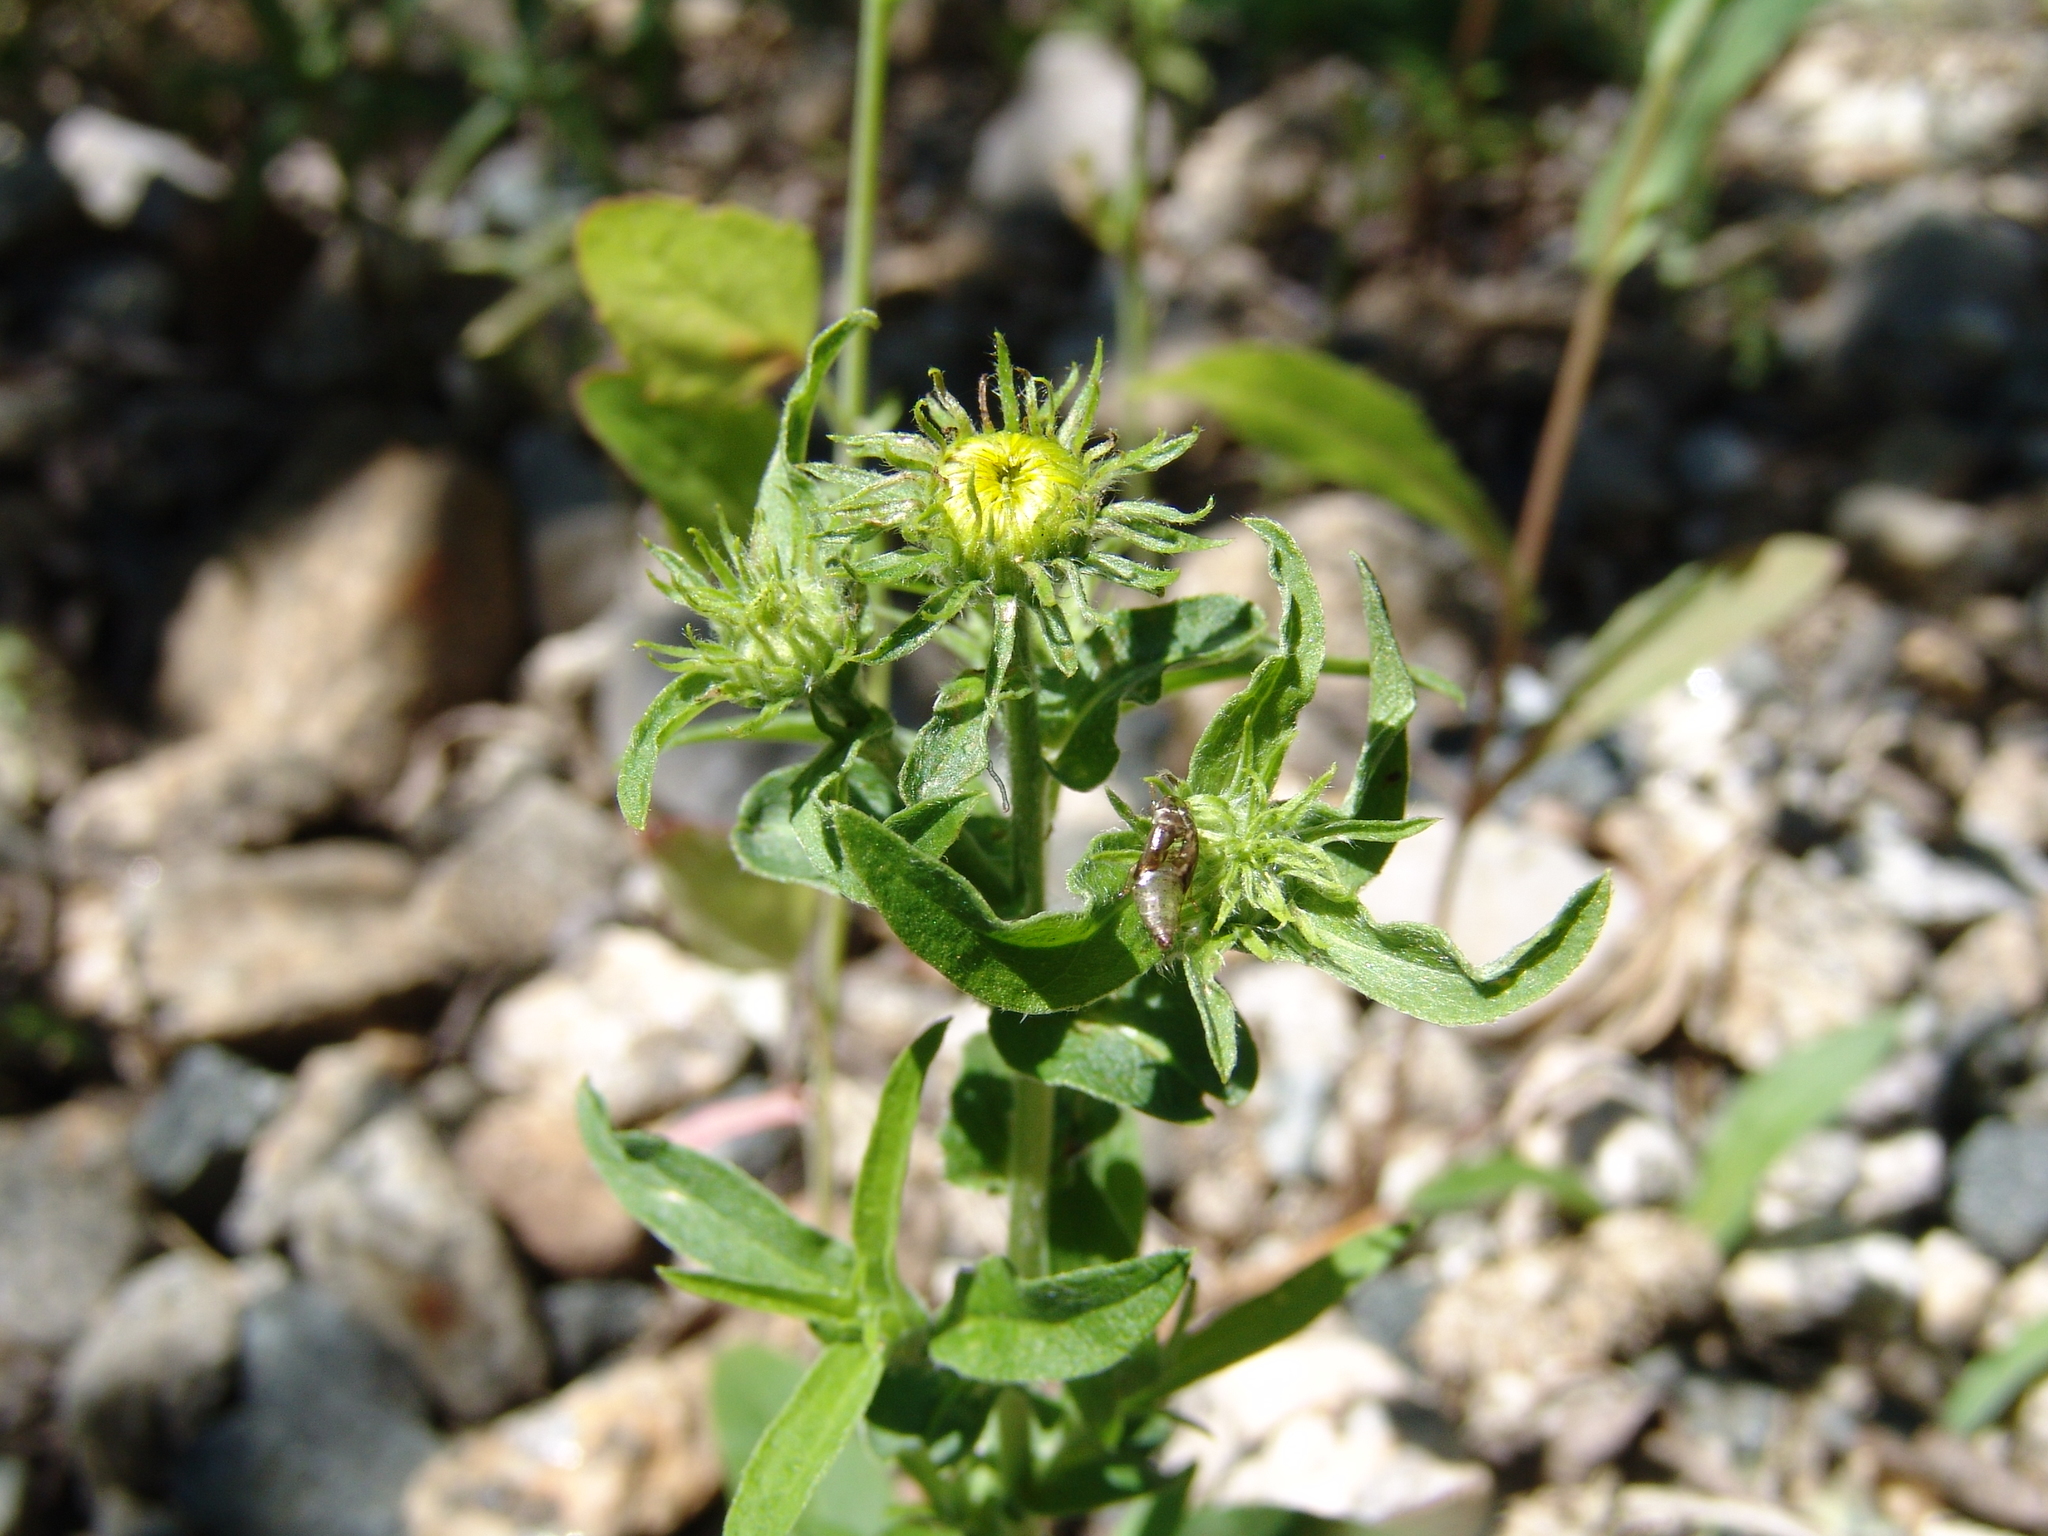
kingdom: Plantae
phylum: Tracheophyta
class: Magnoliopsida
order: Asterales
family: Asteraceae
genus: Pentanema
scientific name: Pentanema britannicum
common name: British elecampane
